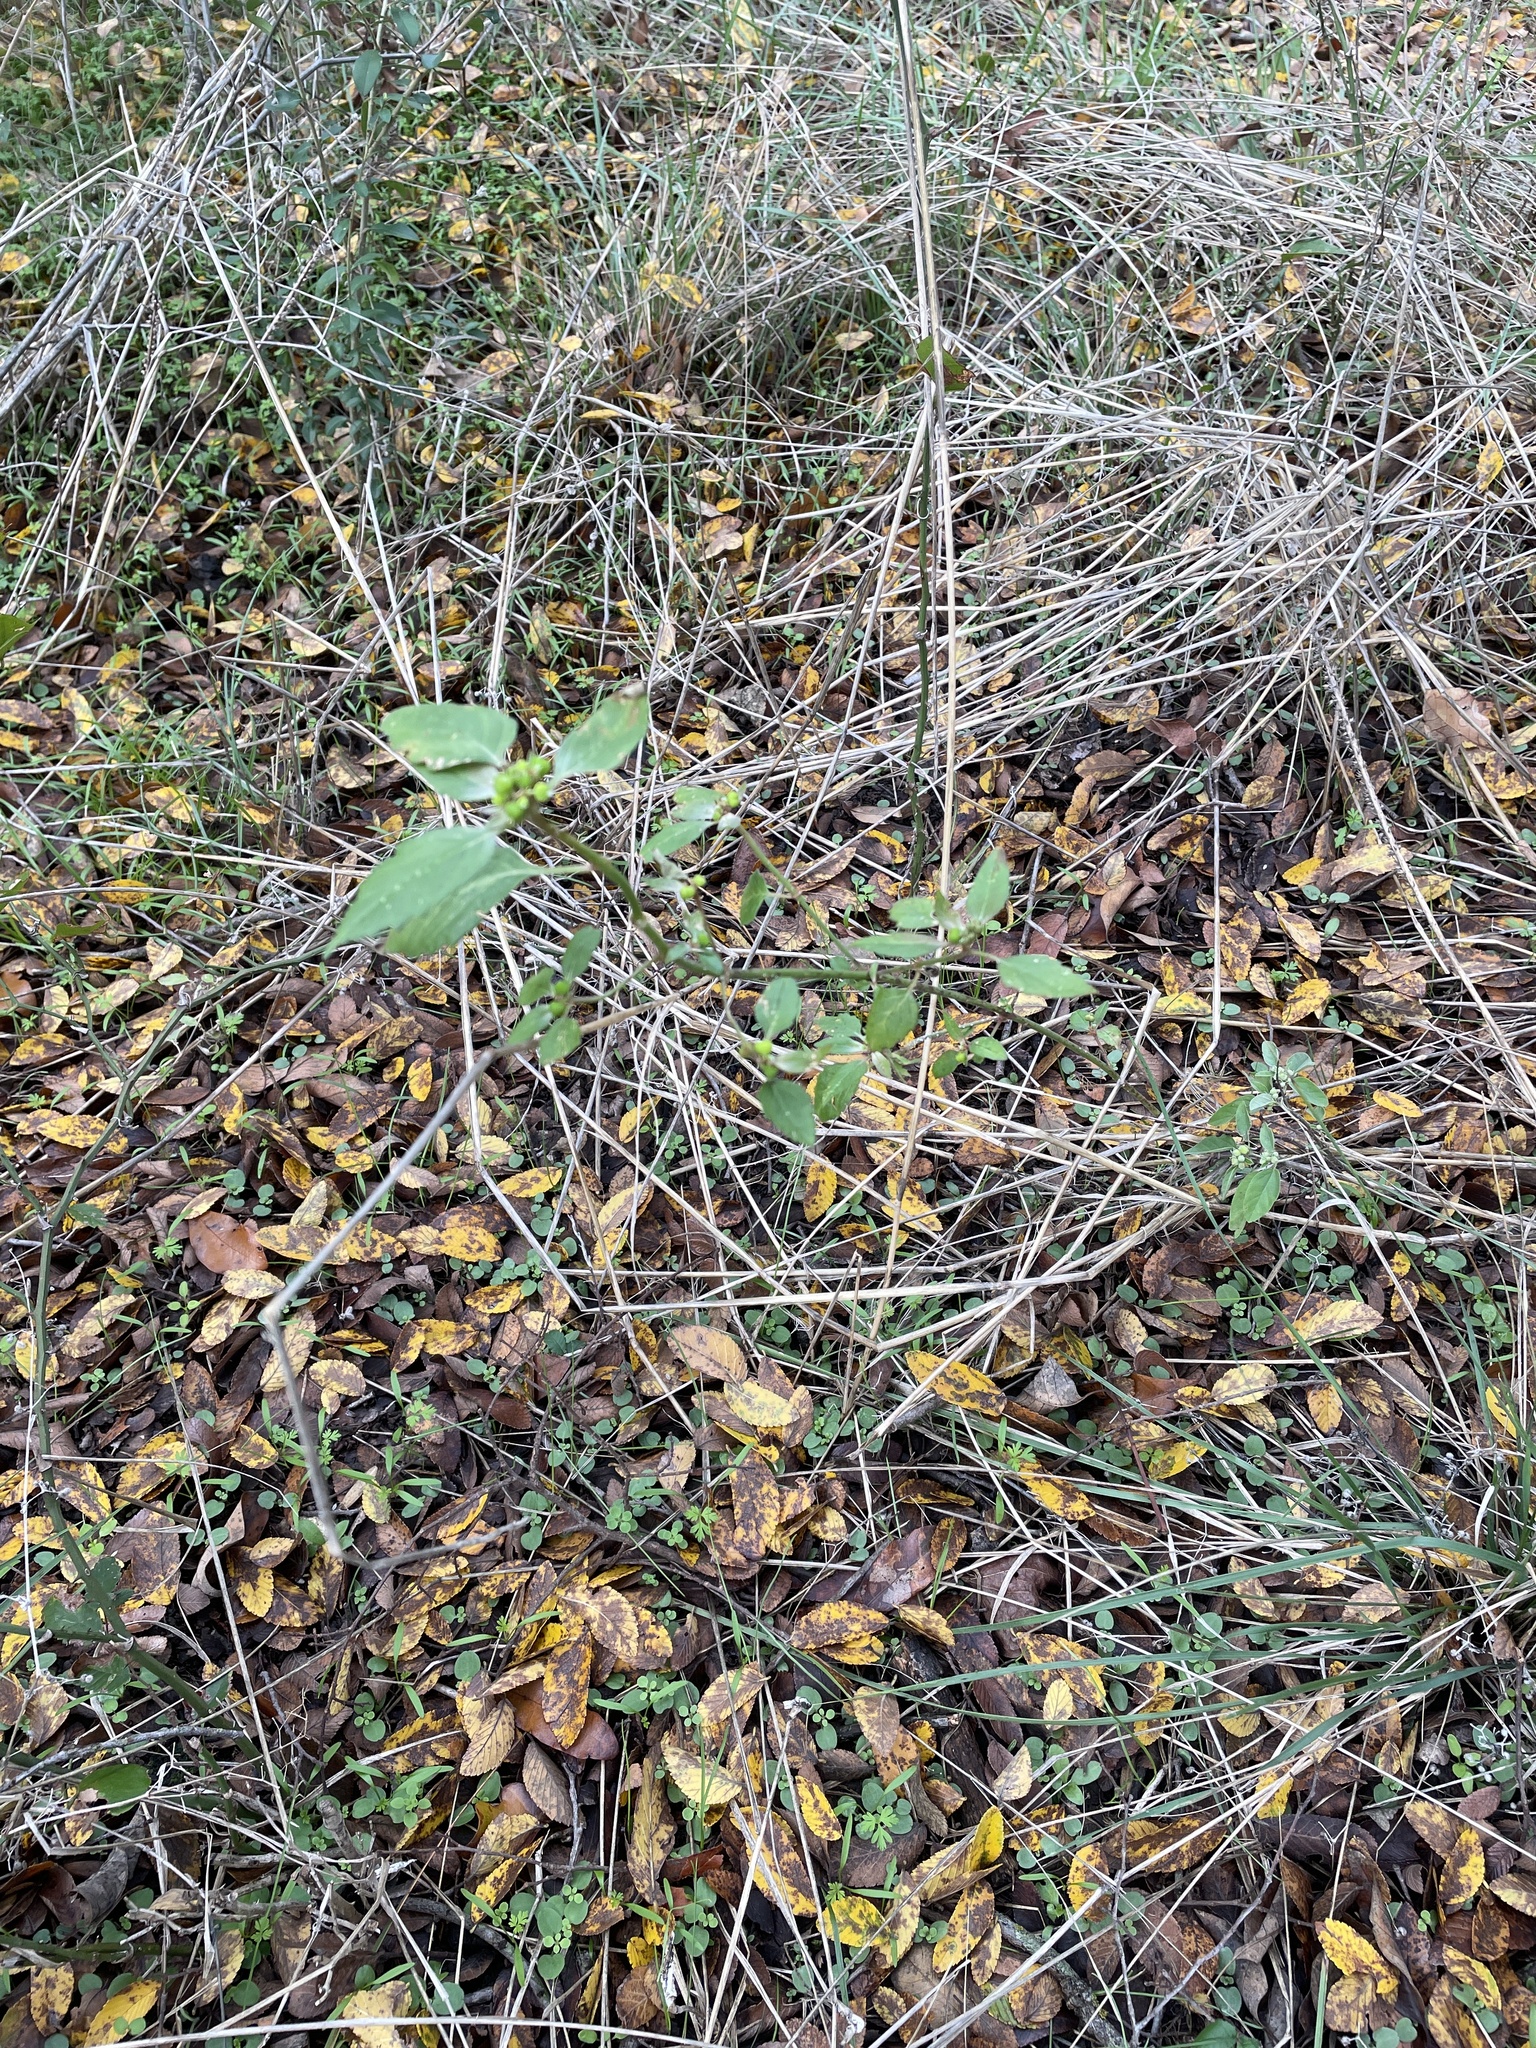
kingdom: Plantae
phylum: Tracheophyta
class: Magnoliopsida
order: Malpighiales
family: Euphorbiaceae
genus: Euphorbia
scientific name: Euphorbia dentata
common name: Dentate spurge
